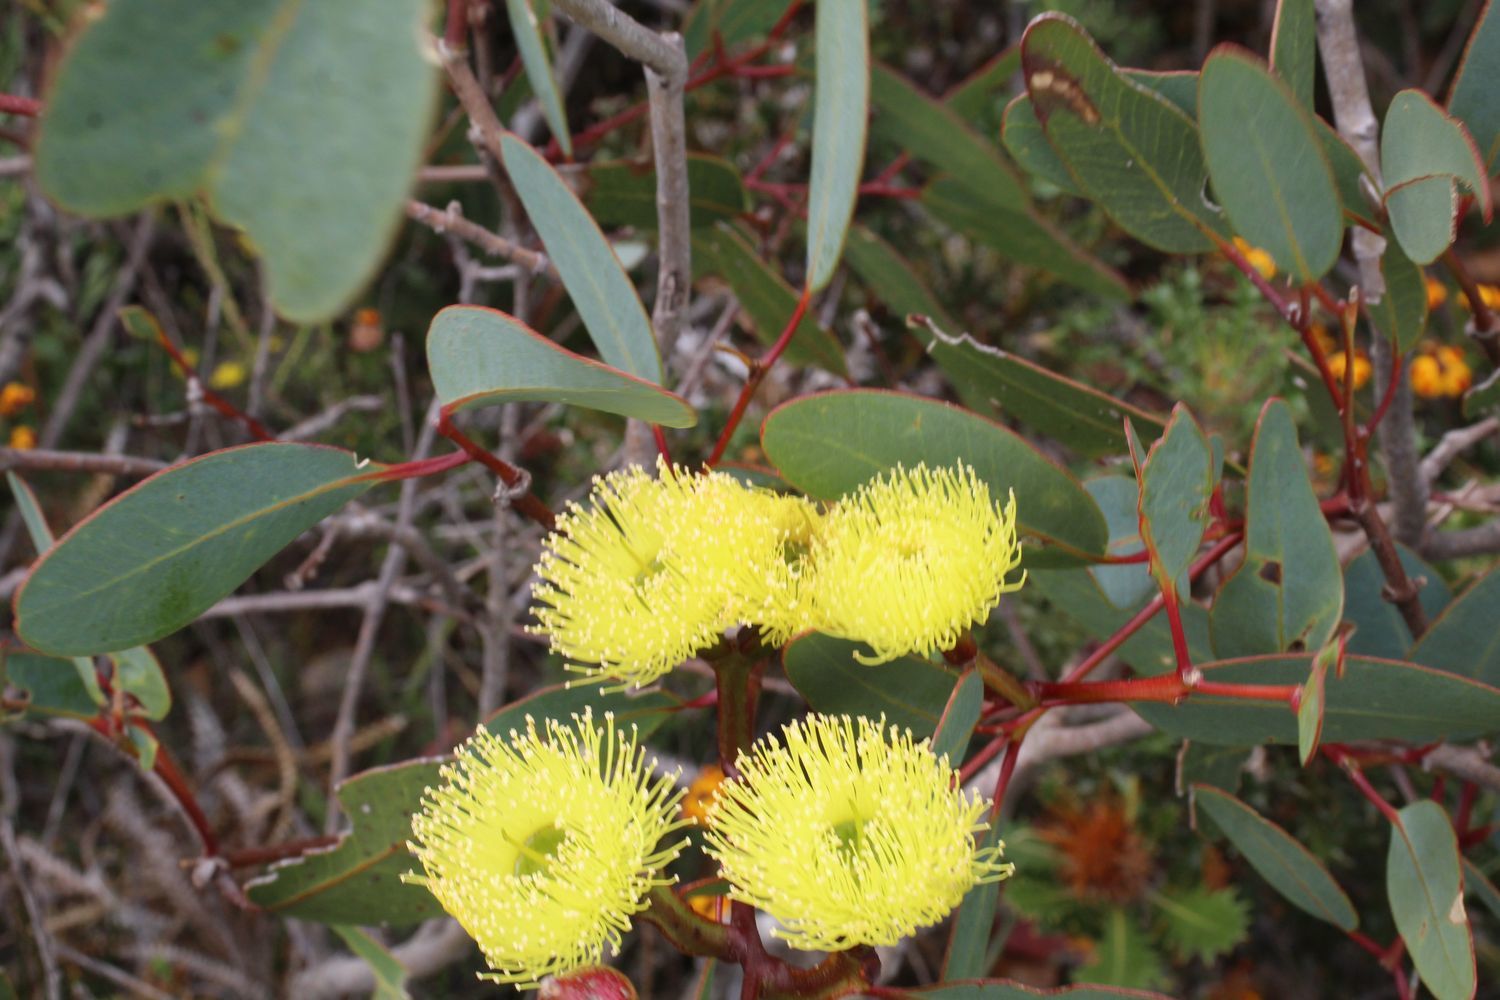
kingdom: Plantae
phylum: Tracheophyta
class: Magnoliopsida
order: Myrtales
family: Myrtaceae
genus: Eucalyptus
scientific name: Eucalyptus preissiana
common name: Stirling range mallee
